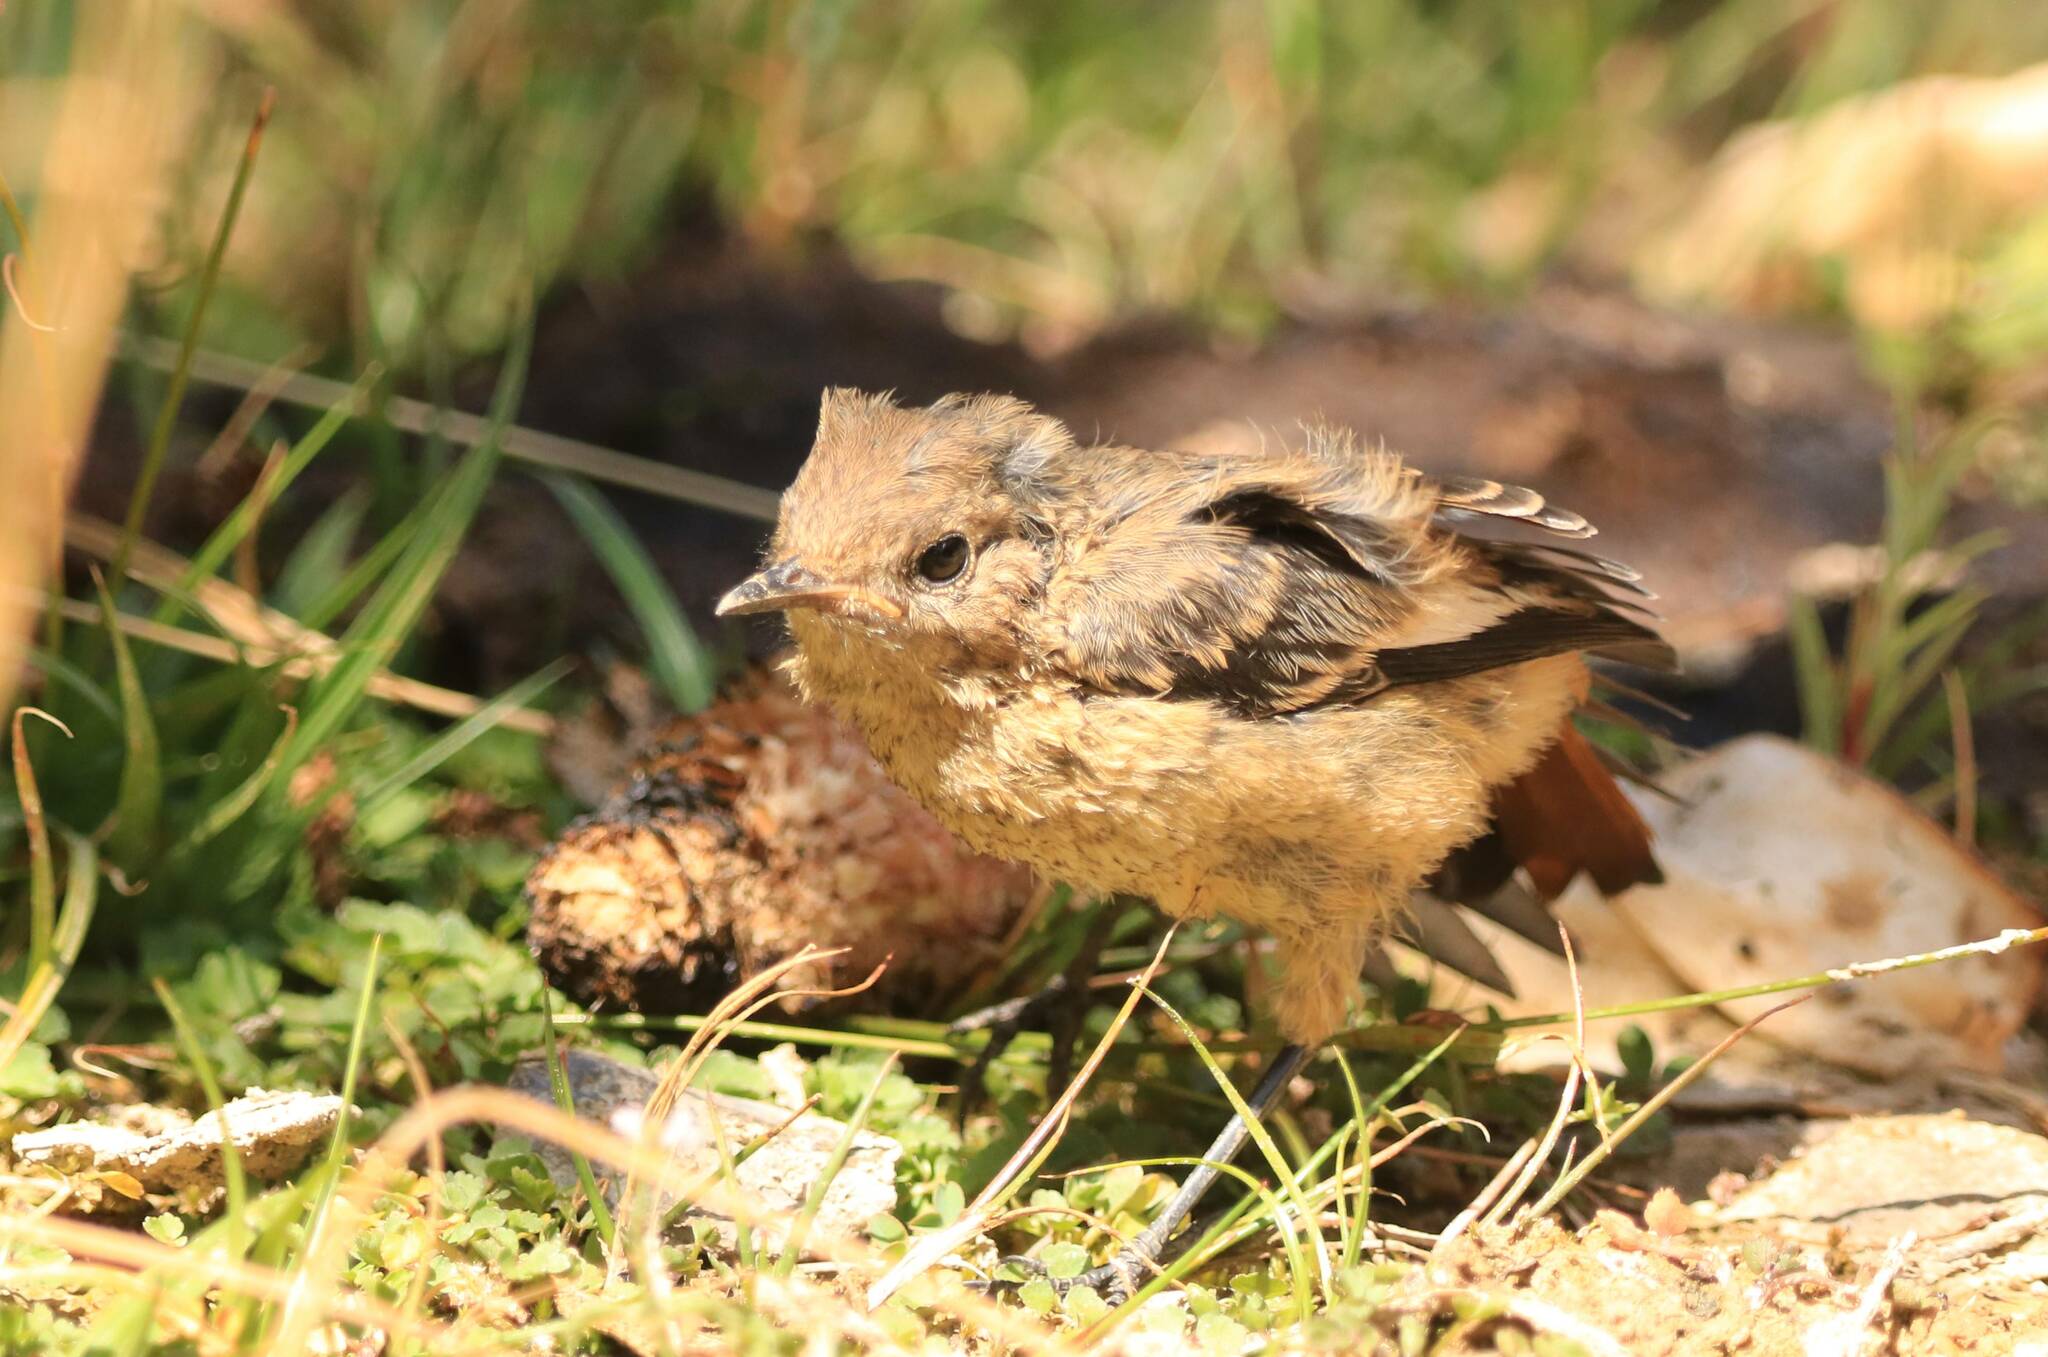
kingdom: Animalia
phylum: Chordata
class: Aves
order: Passeriformes
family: Muscicapidae
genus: Phoenicurus
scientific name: Phoenicurus moussieri
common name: Moussier's redstart
